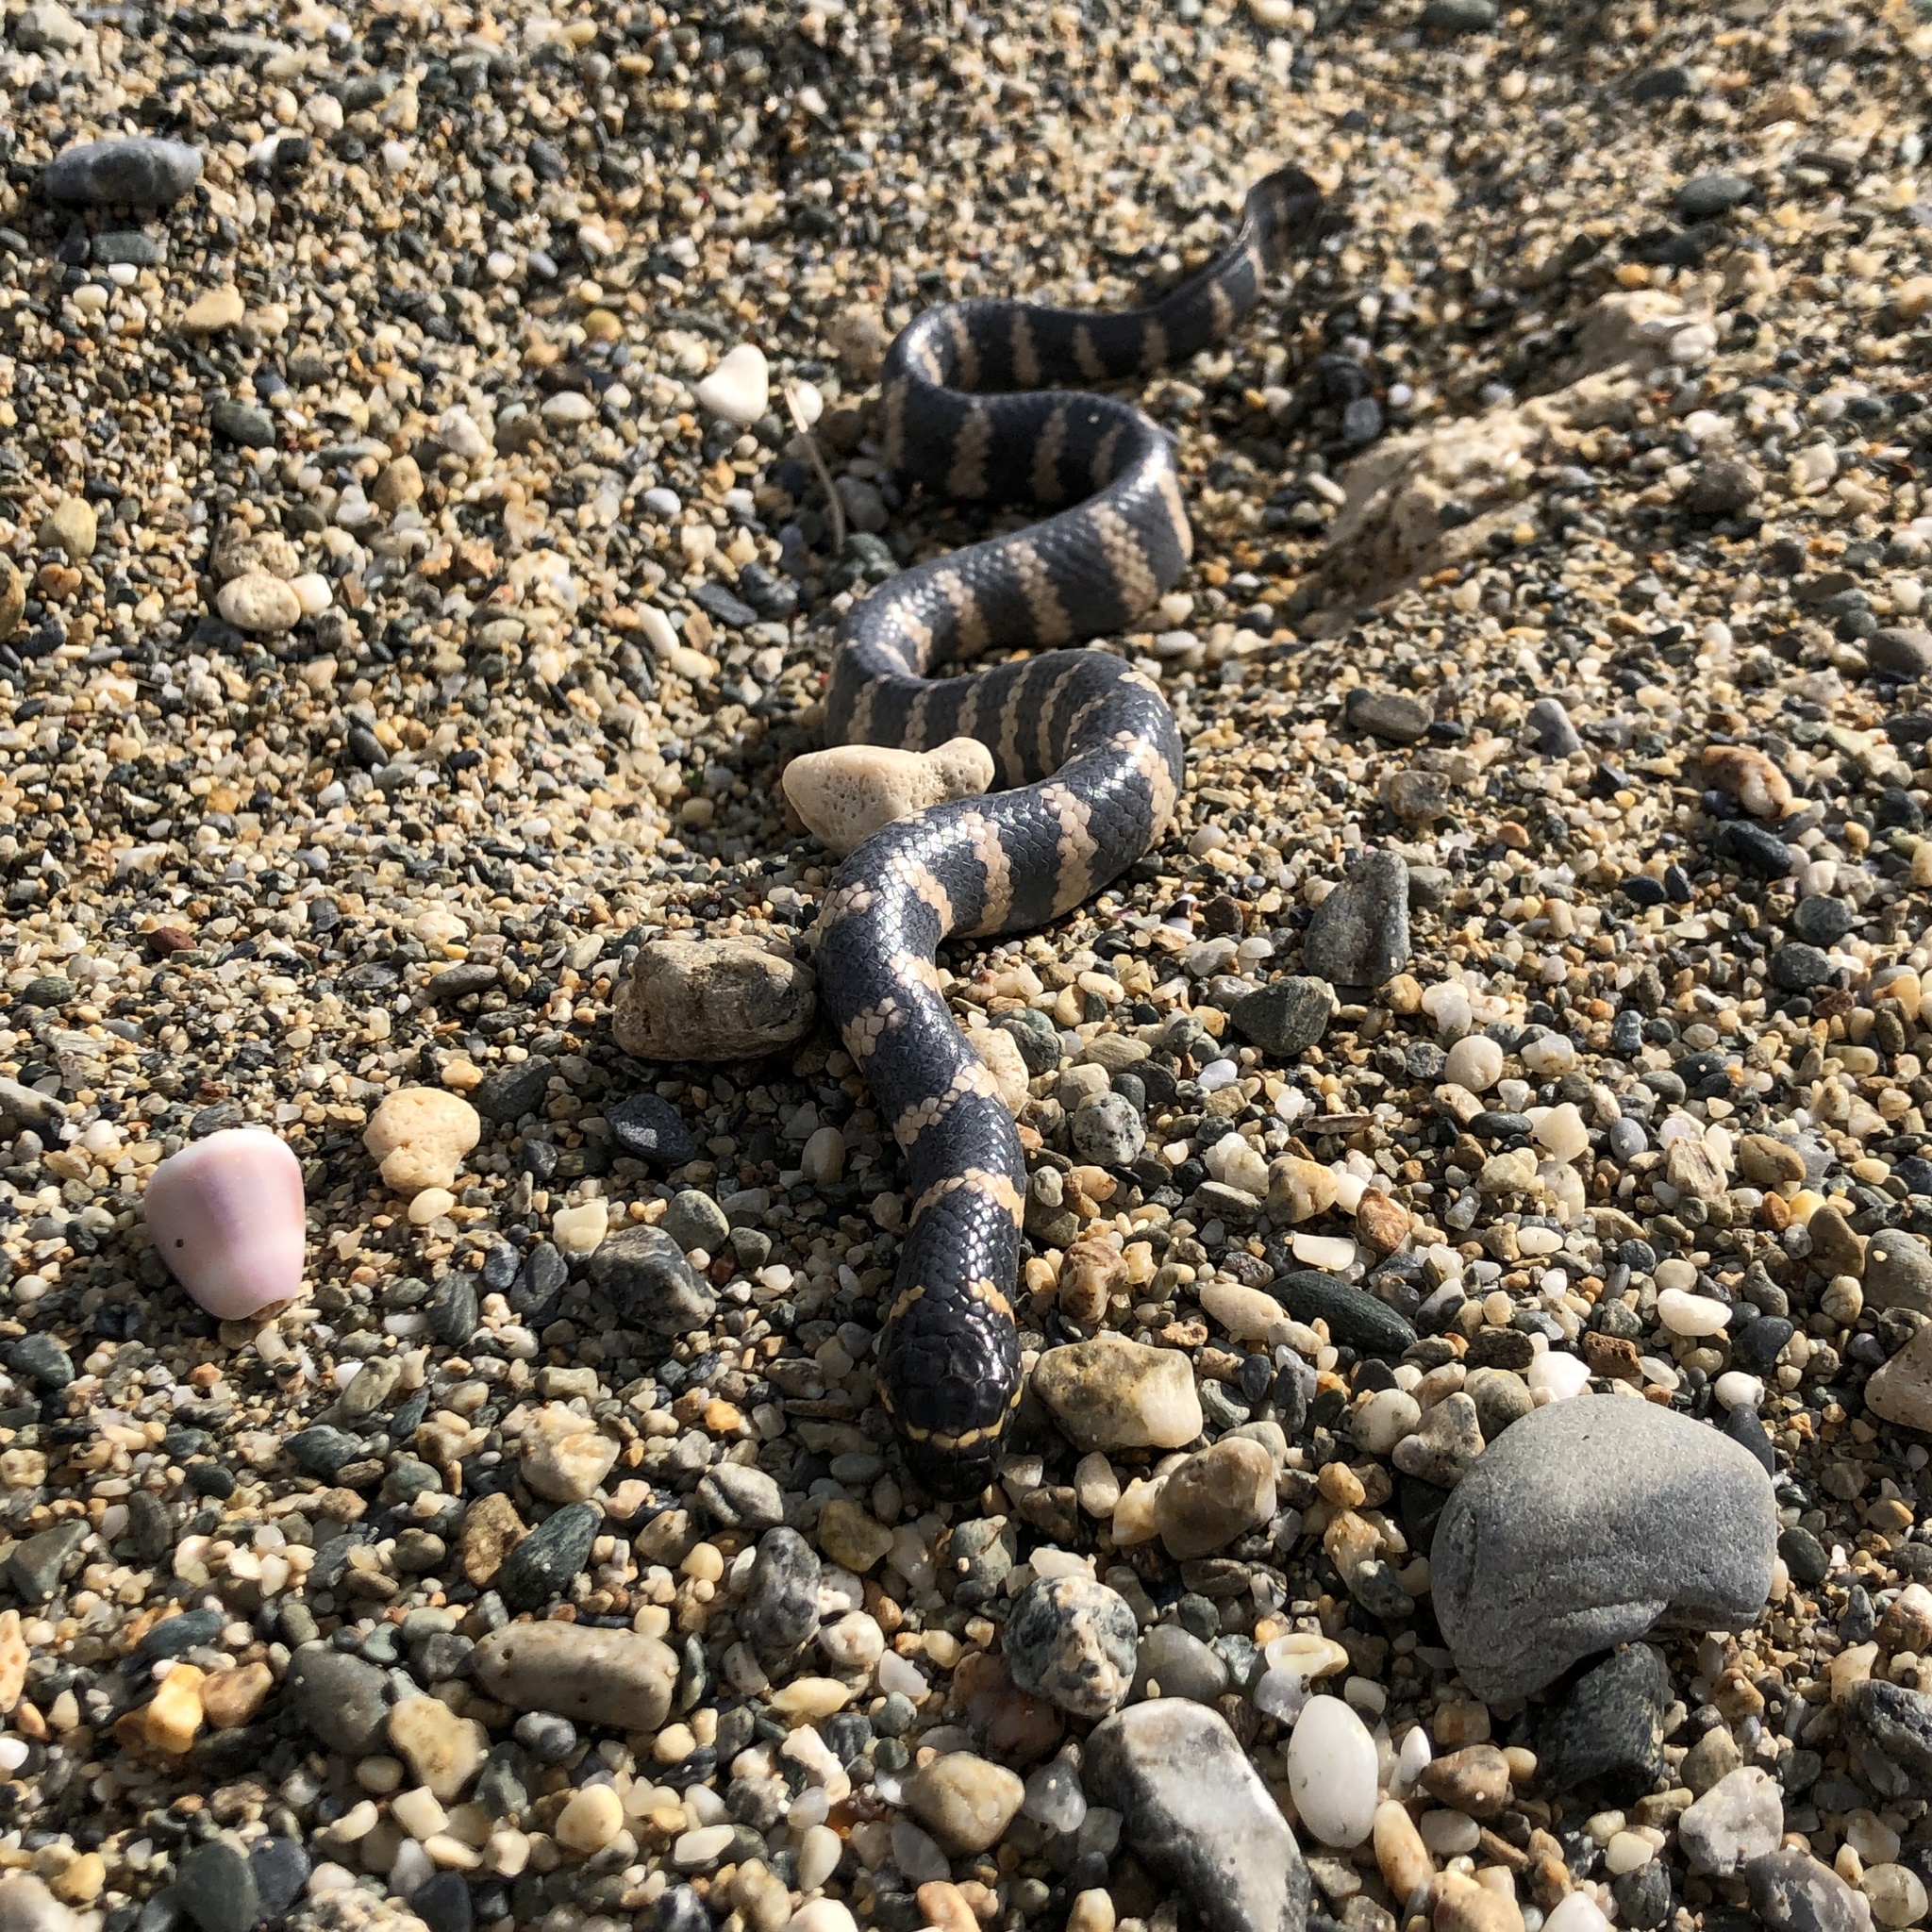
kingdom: Animalia
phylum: Chordata
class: Squamata
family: Elapidae
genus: Emydocephalus
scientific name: Emydocephalus ijimae
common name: Turtlehead sea snake
